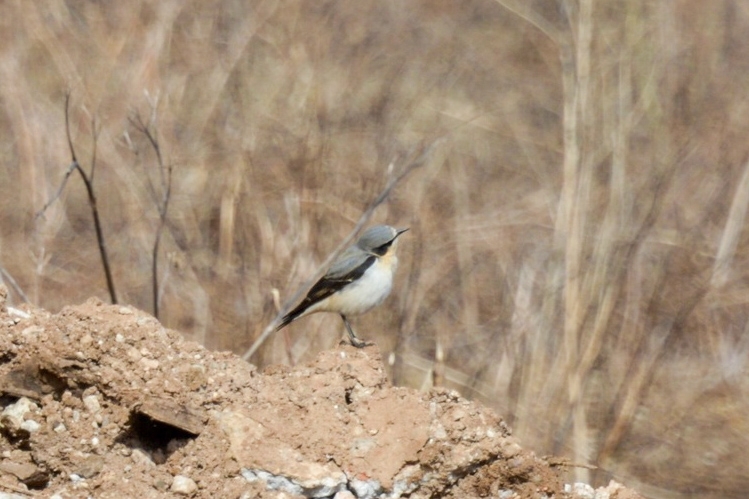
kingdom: Animalia
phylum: Chordata
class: Aves
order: Passeriformes
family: Muscicapidae
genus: Oenanthe
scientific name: Oenanthe oenanthe
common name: Northern wheatear
